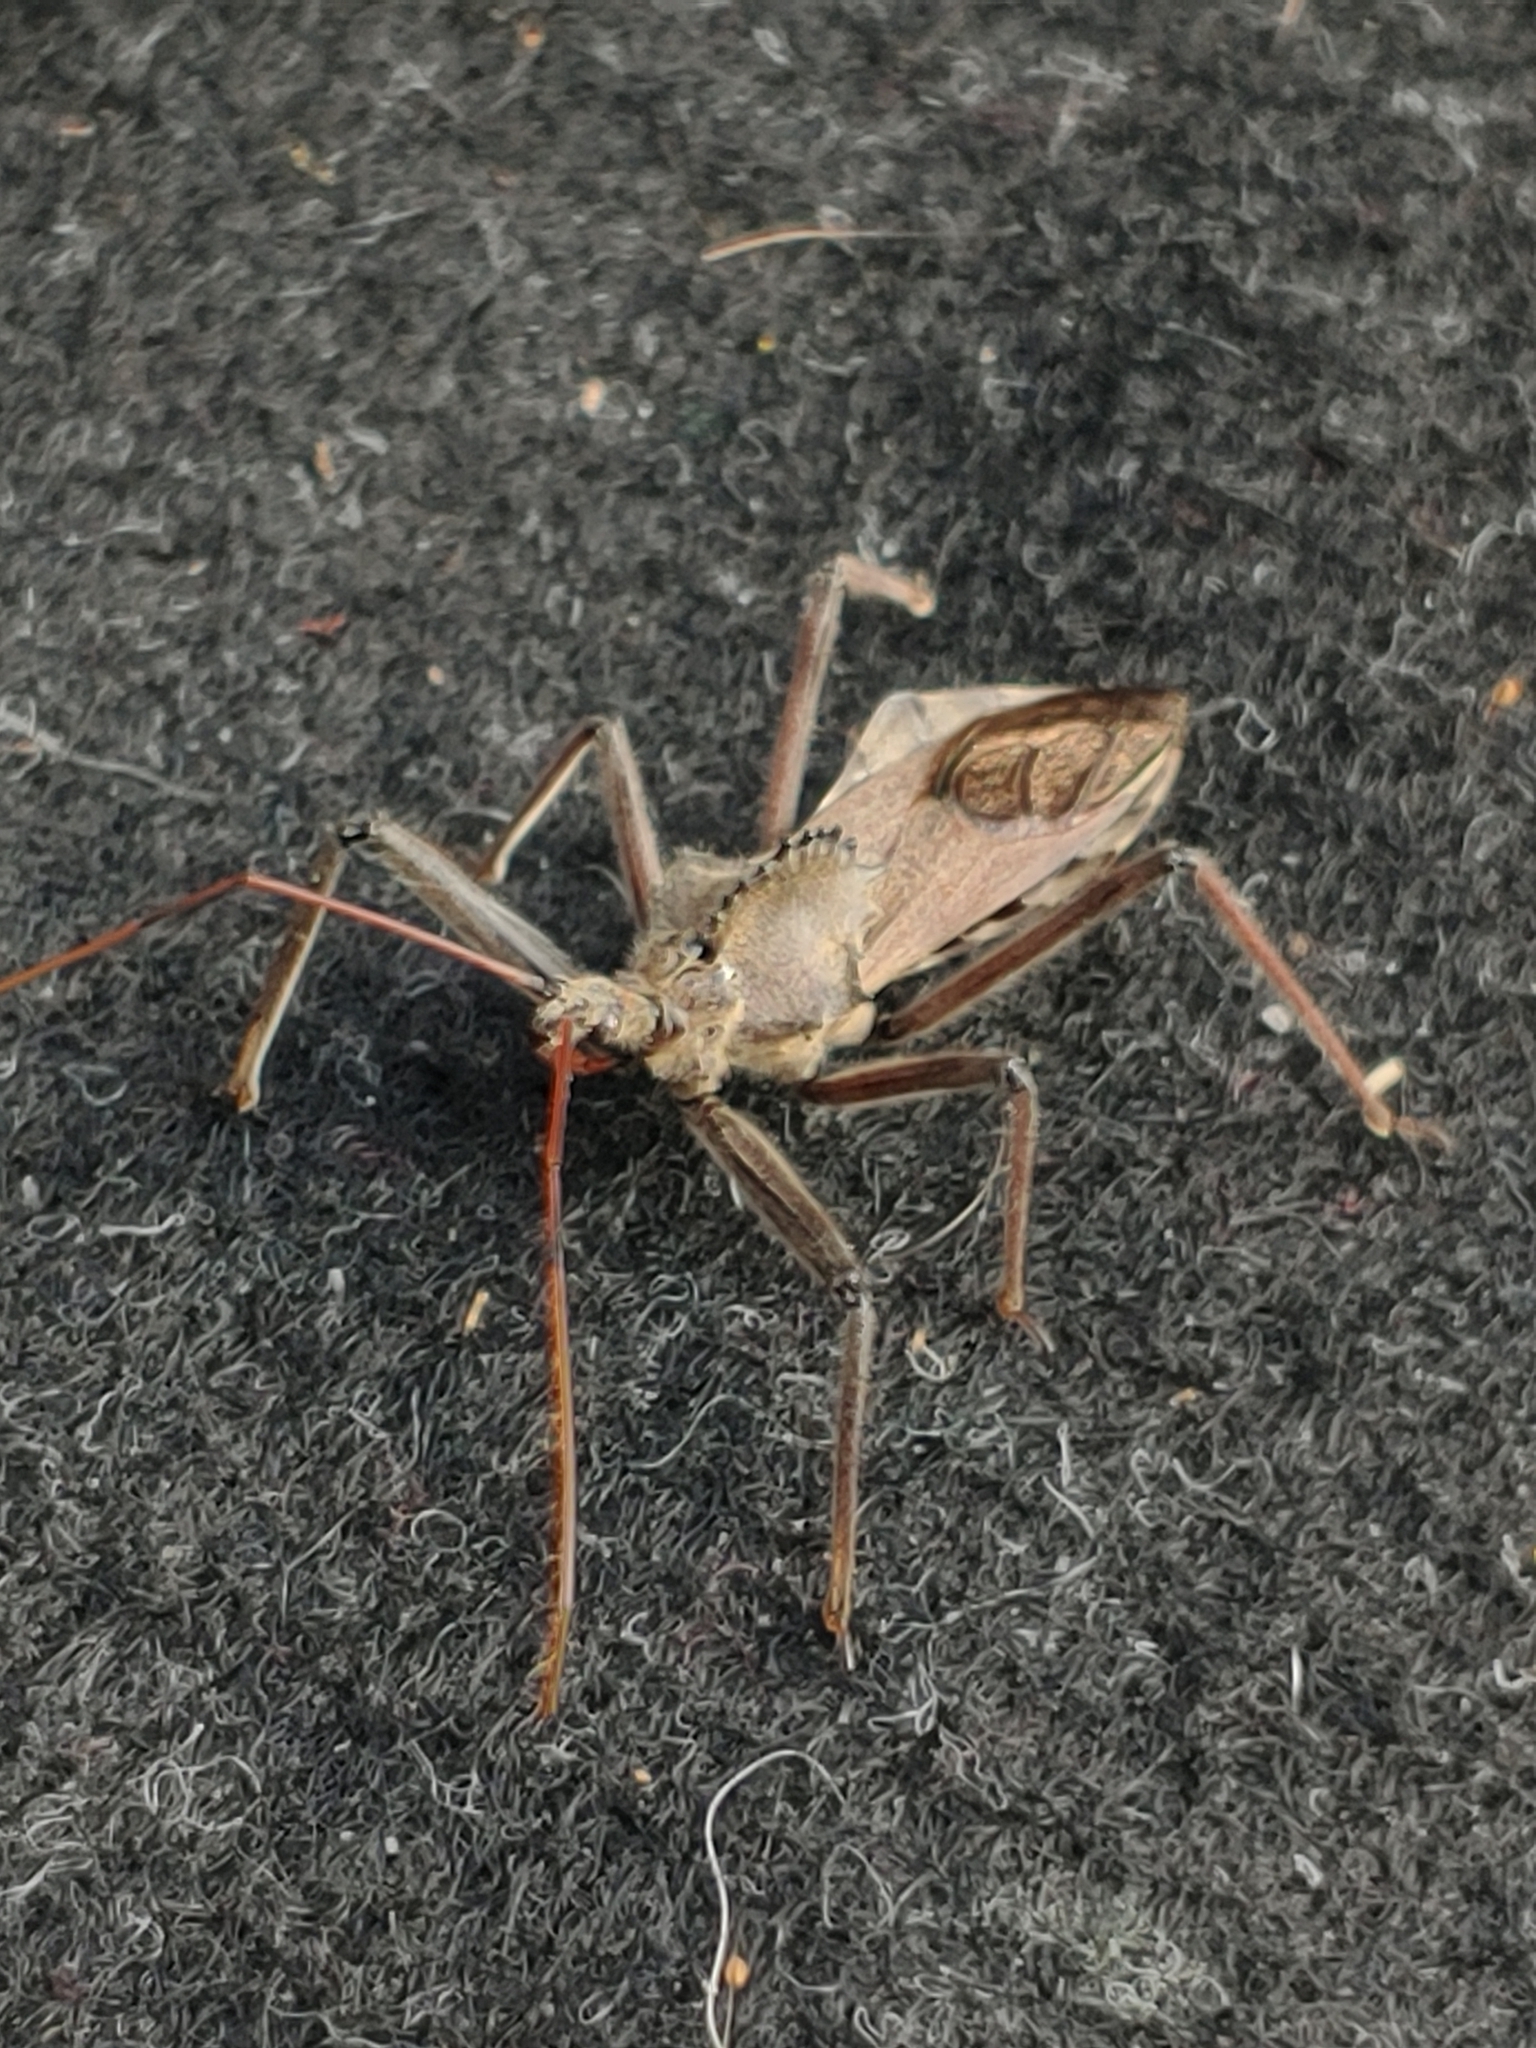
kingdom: Animalia
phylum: Arthropoda
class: Insecta
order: Hemiptera
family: Reduviidae
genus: Arilus
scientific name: Arilus cristatus
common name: North american wheel bug
